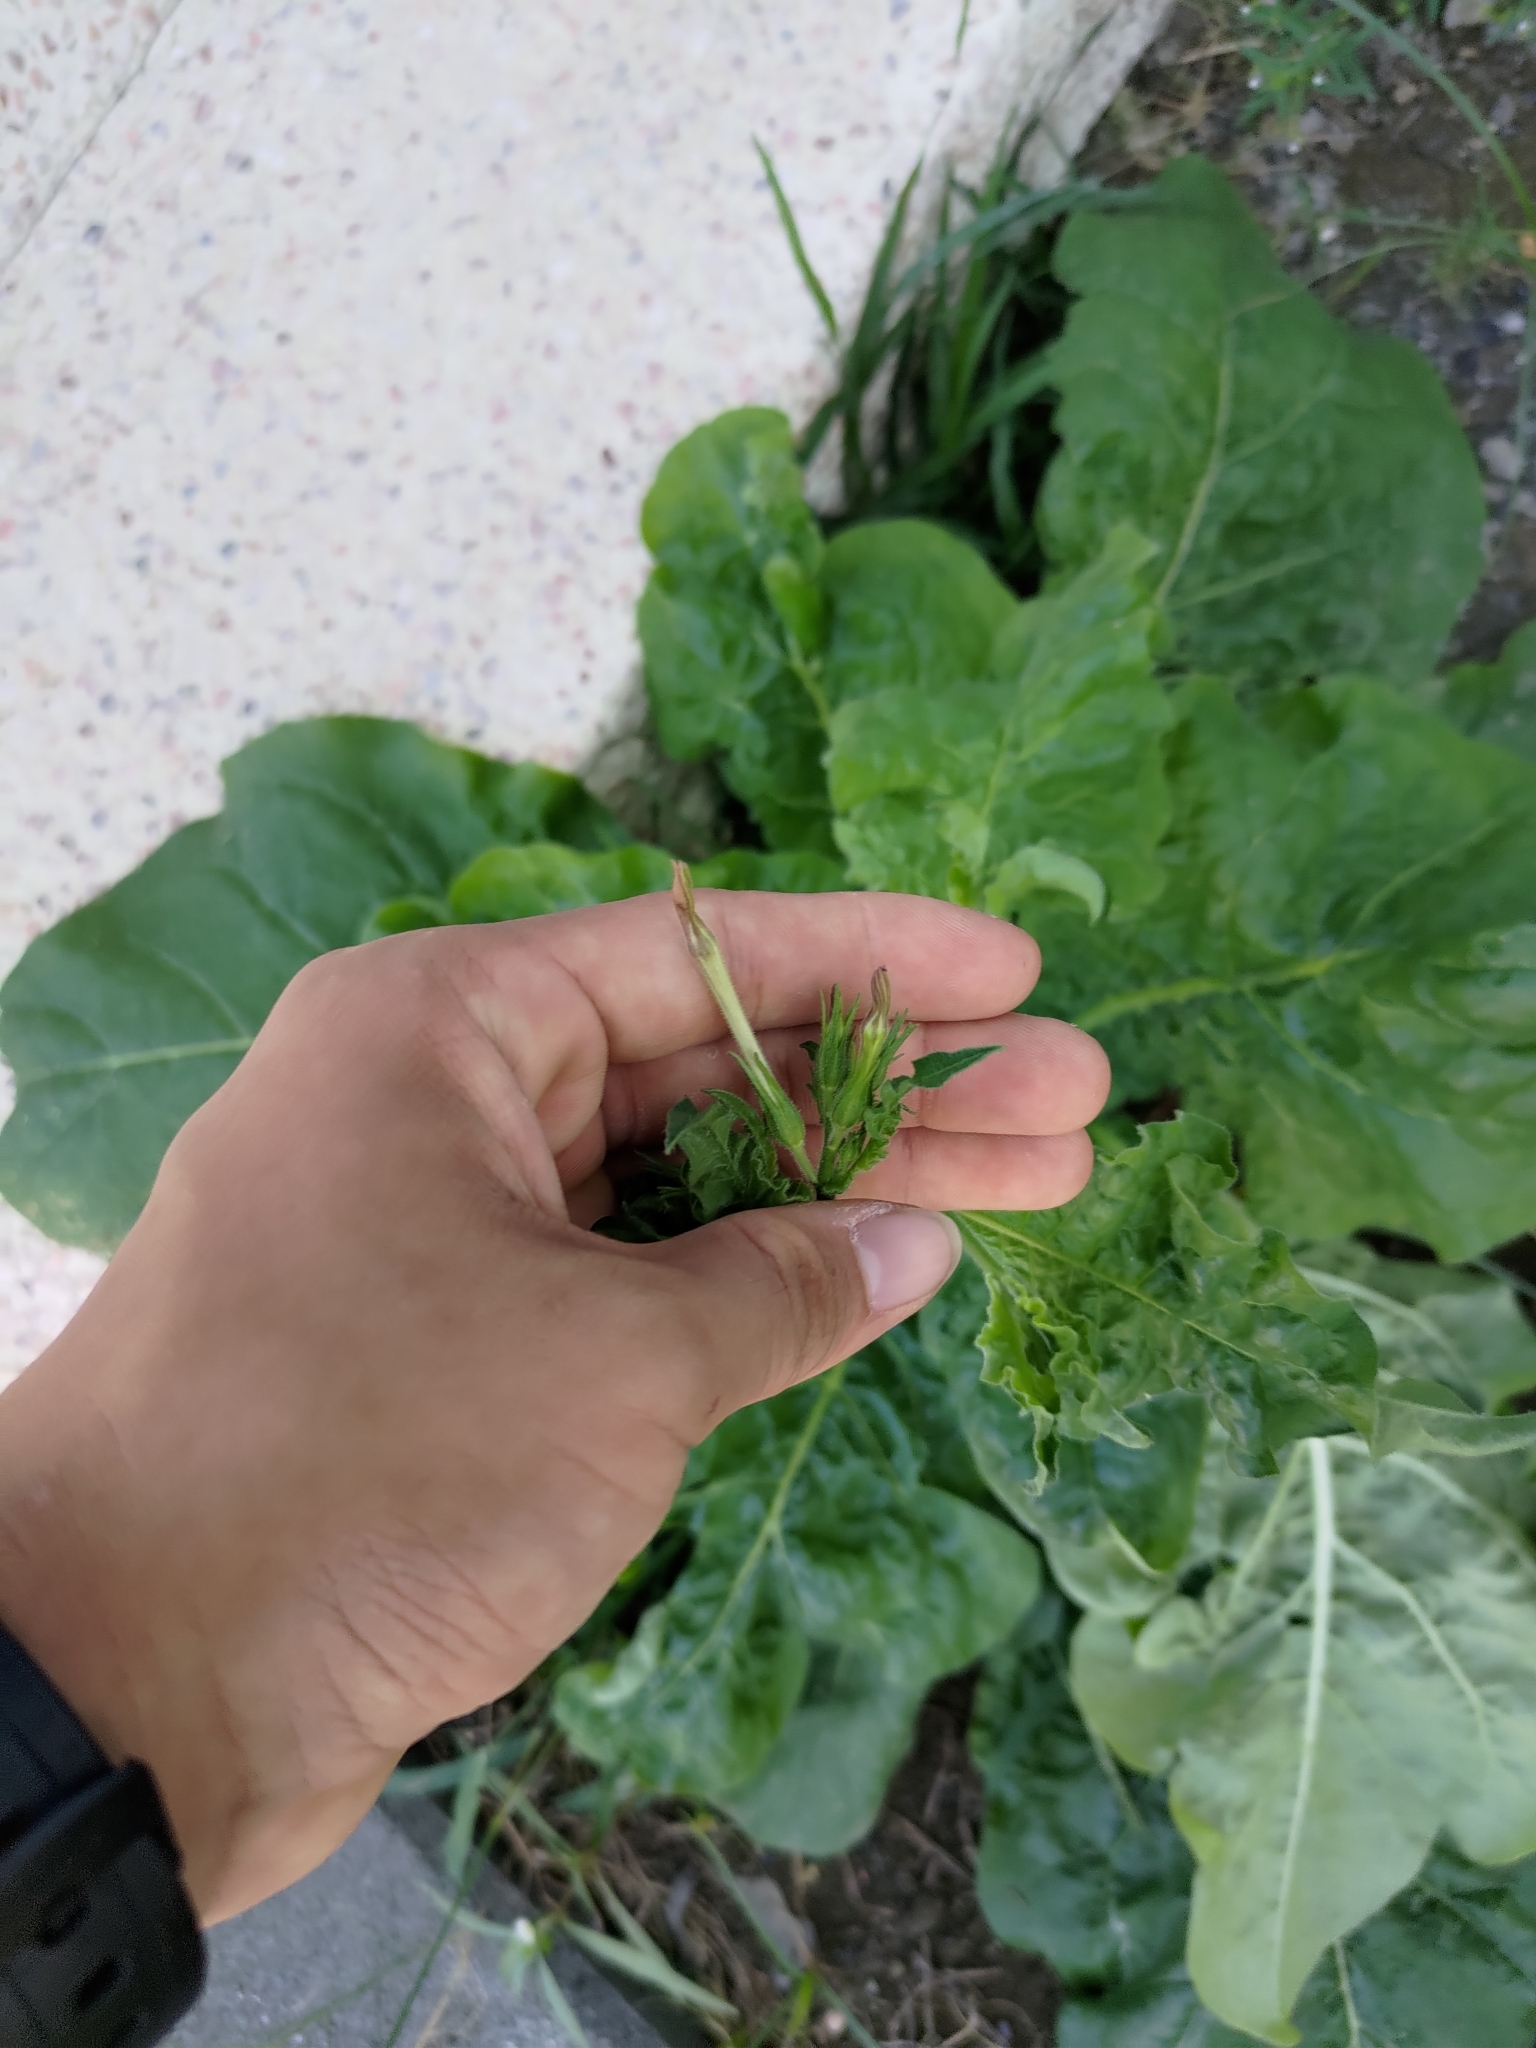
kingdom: Plantae
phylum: Tracheophyta
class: Magnoliopsida
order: Solanales
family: Solanaceae
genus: Nicotiana
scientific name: Nicotiana plumbaginifolia
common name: Tex-mex tobacco
